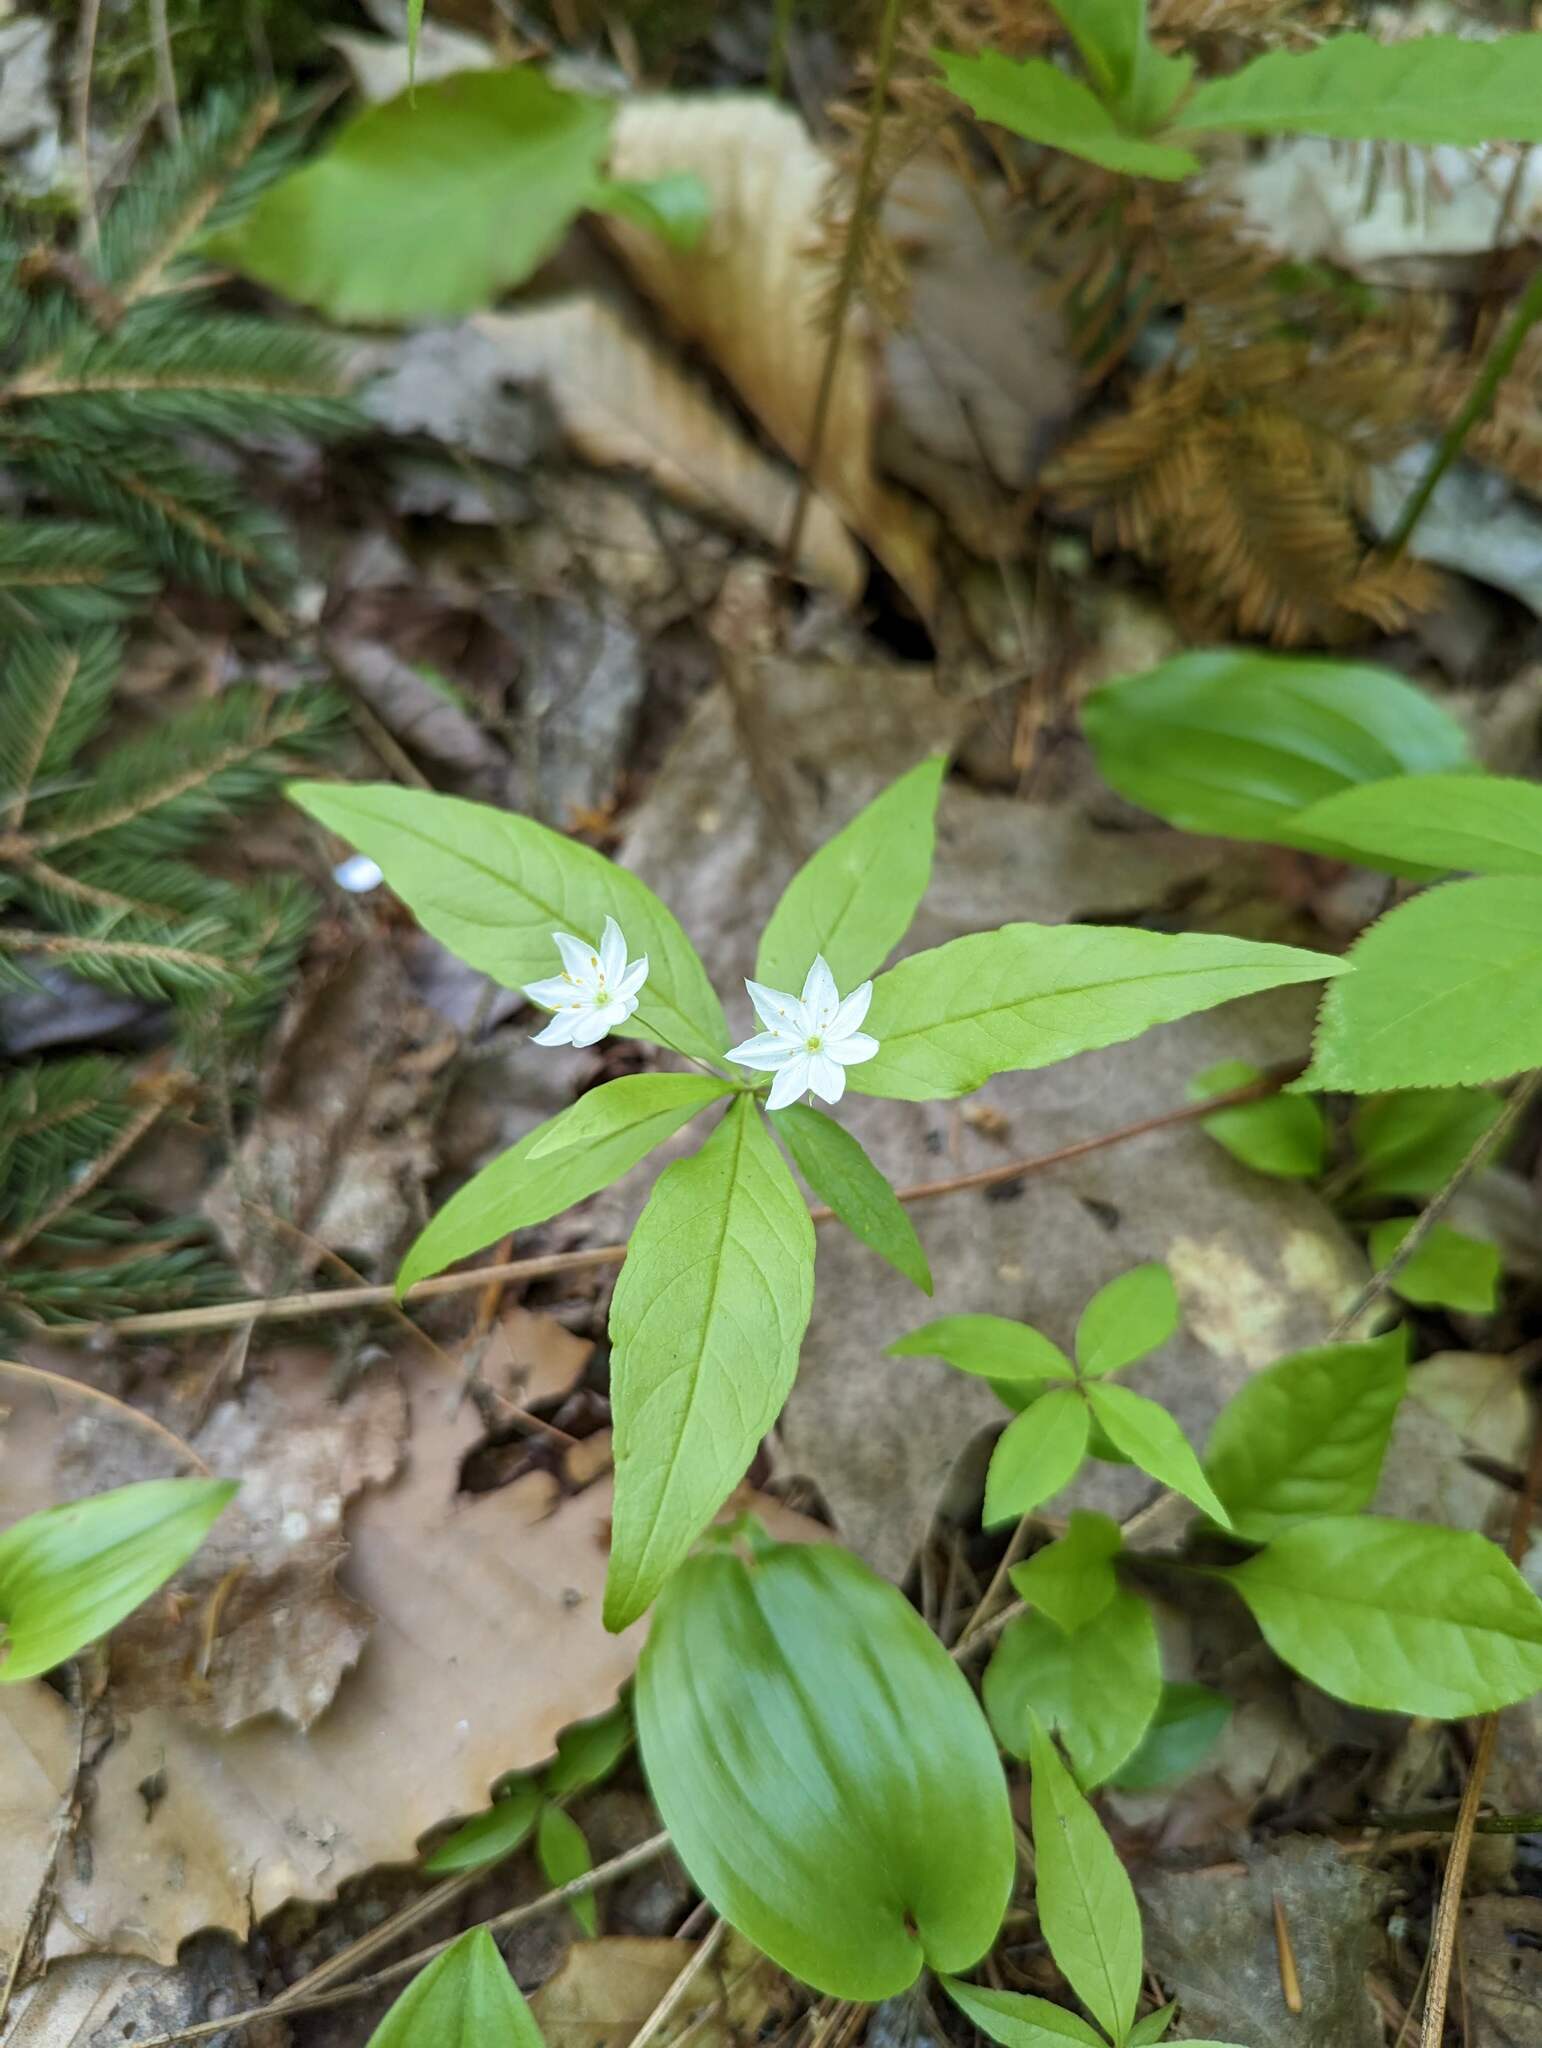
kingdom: Plantae
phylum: Tracheophyta
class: Magnoliopsida
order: Ericales
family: Primulaceae
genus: Lysimachia
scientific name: Lysimachia borealis
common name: American starflower
